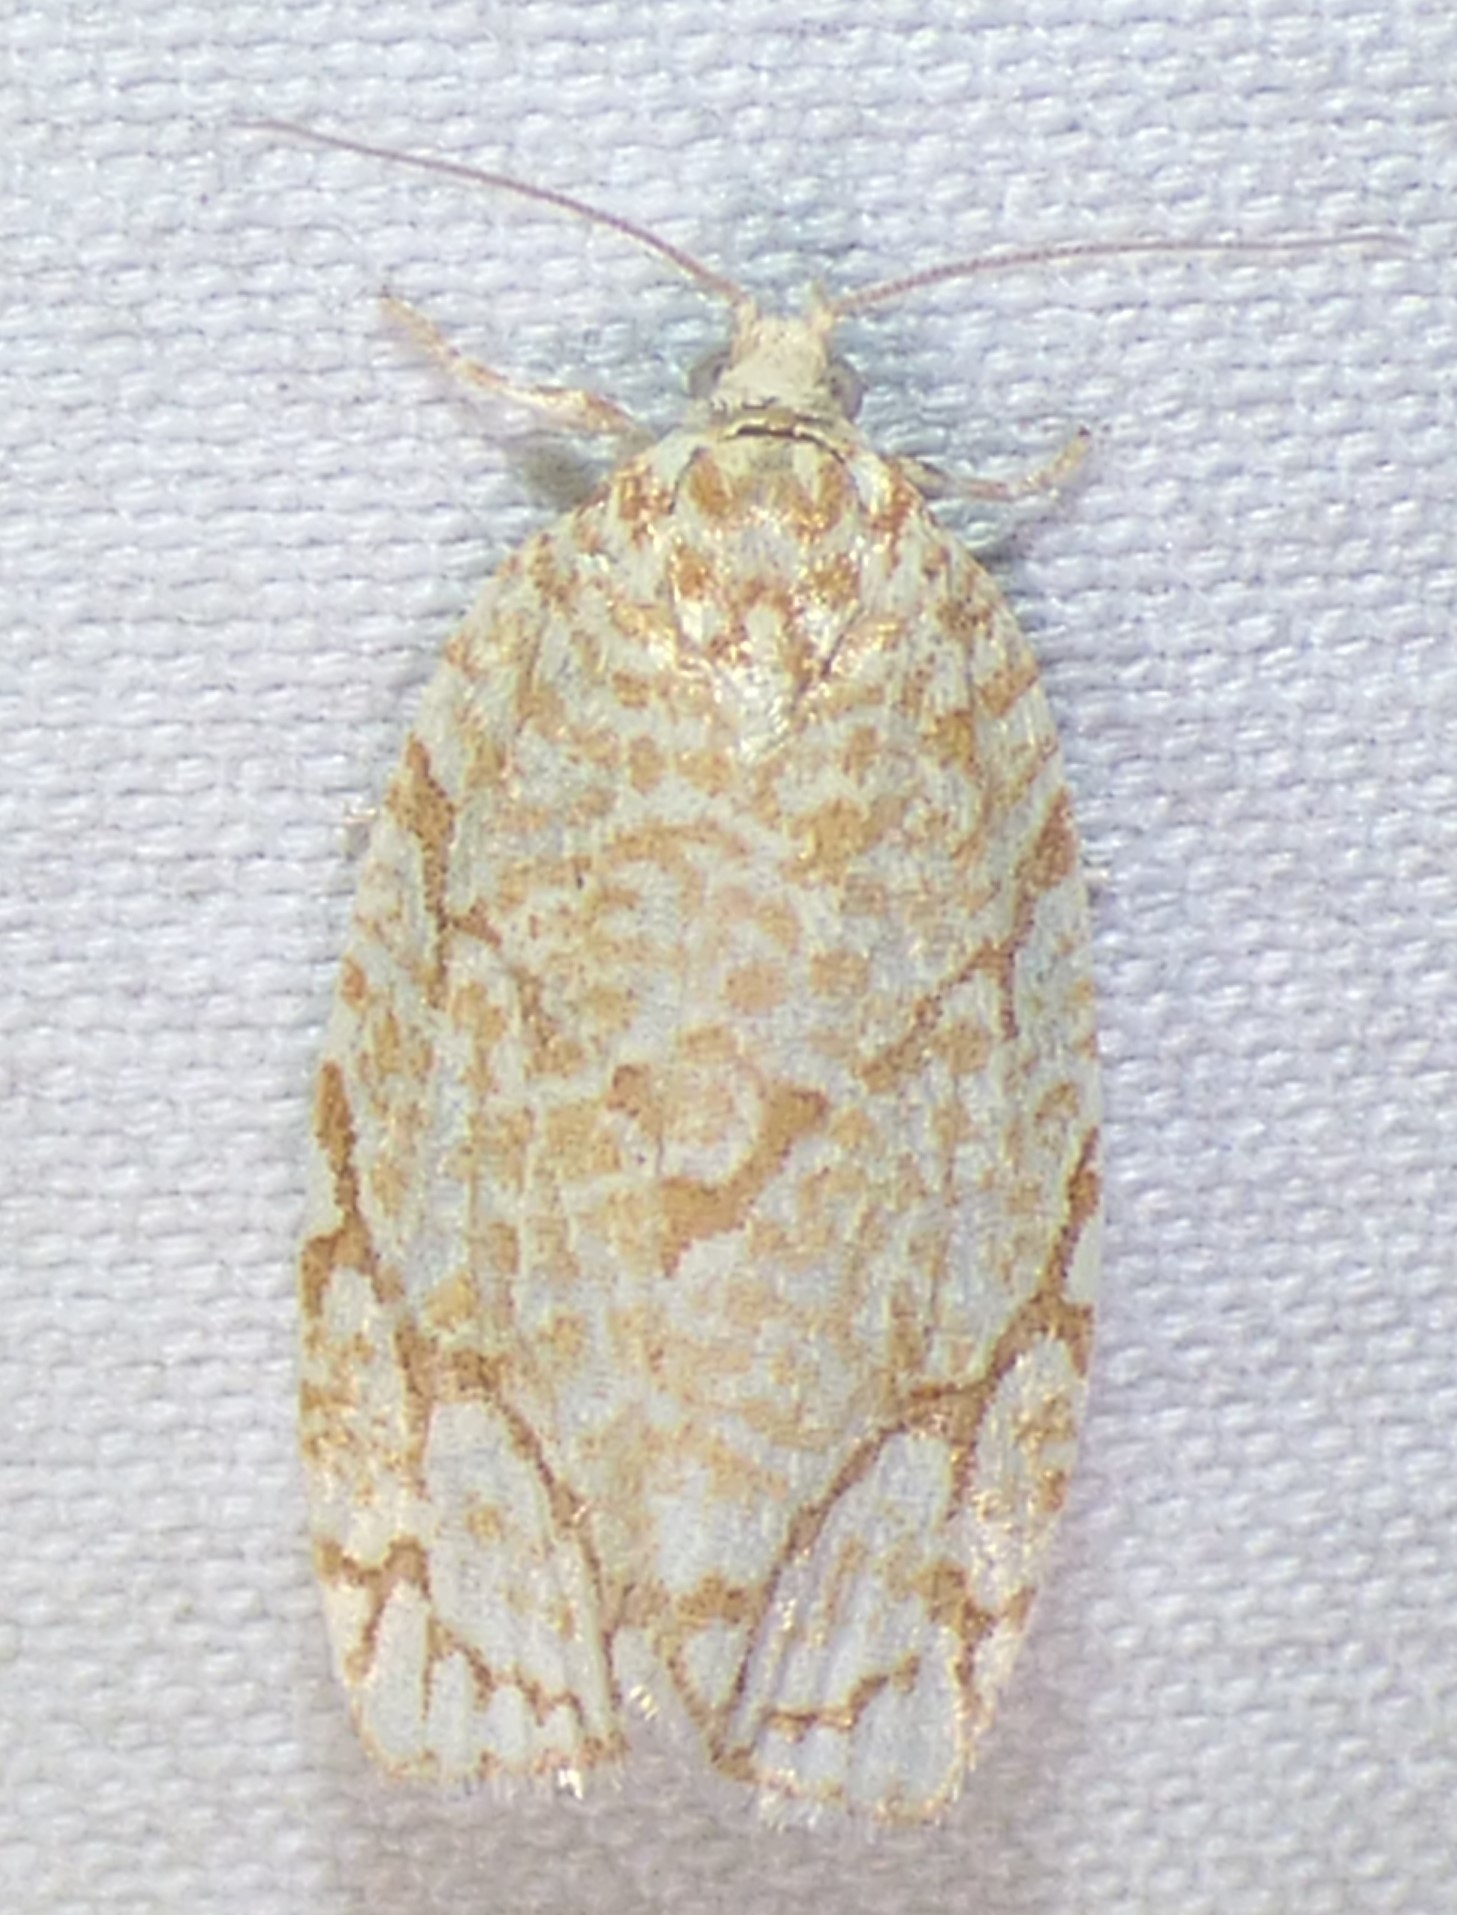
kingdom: Animalia
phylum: Arthropoda
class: Insecta
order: Lepidoptera
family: Tortricidae
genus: Argyrotaenia
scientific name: Argyrotaenia quercifoliana
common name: Yellow-winged oak leafroller moth
